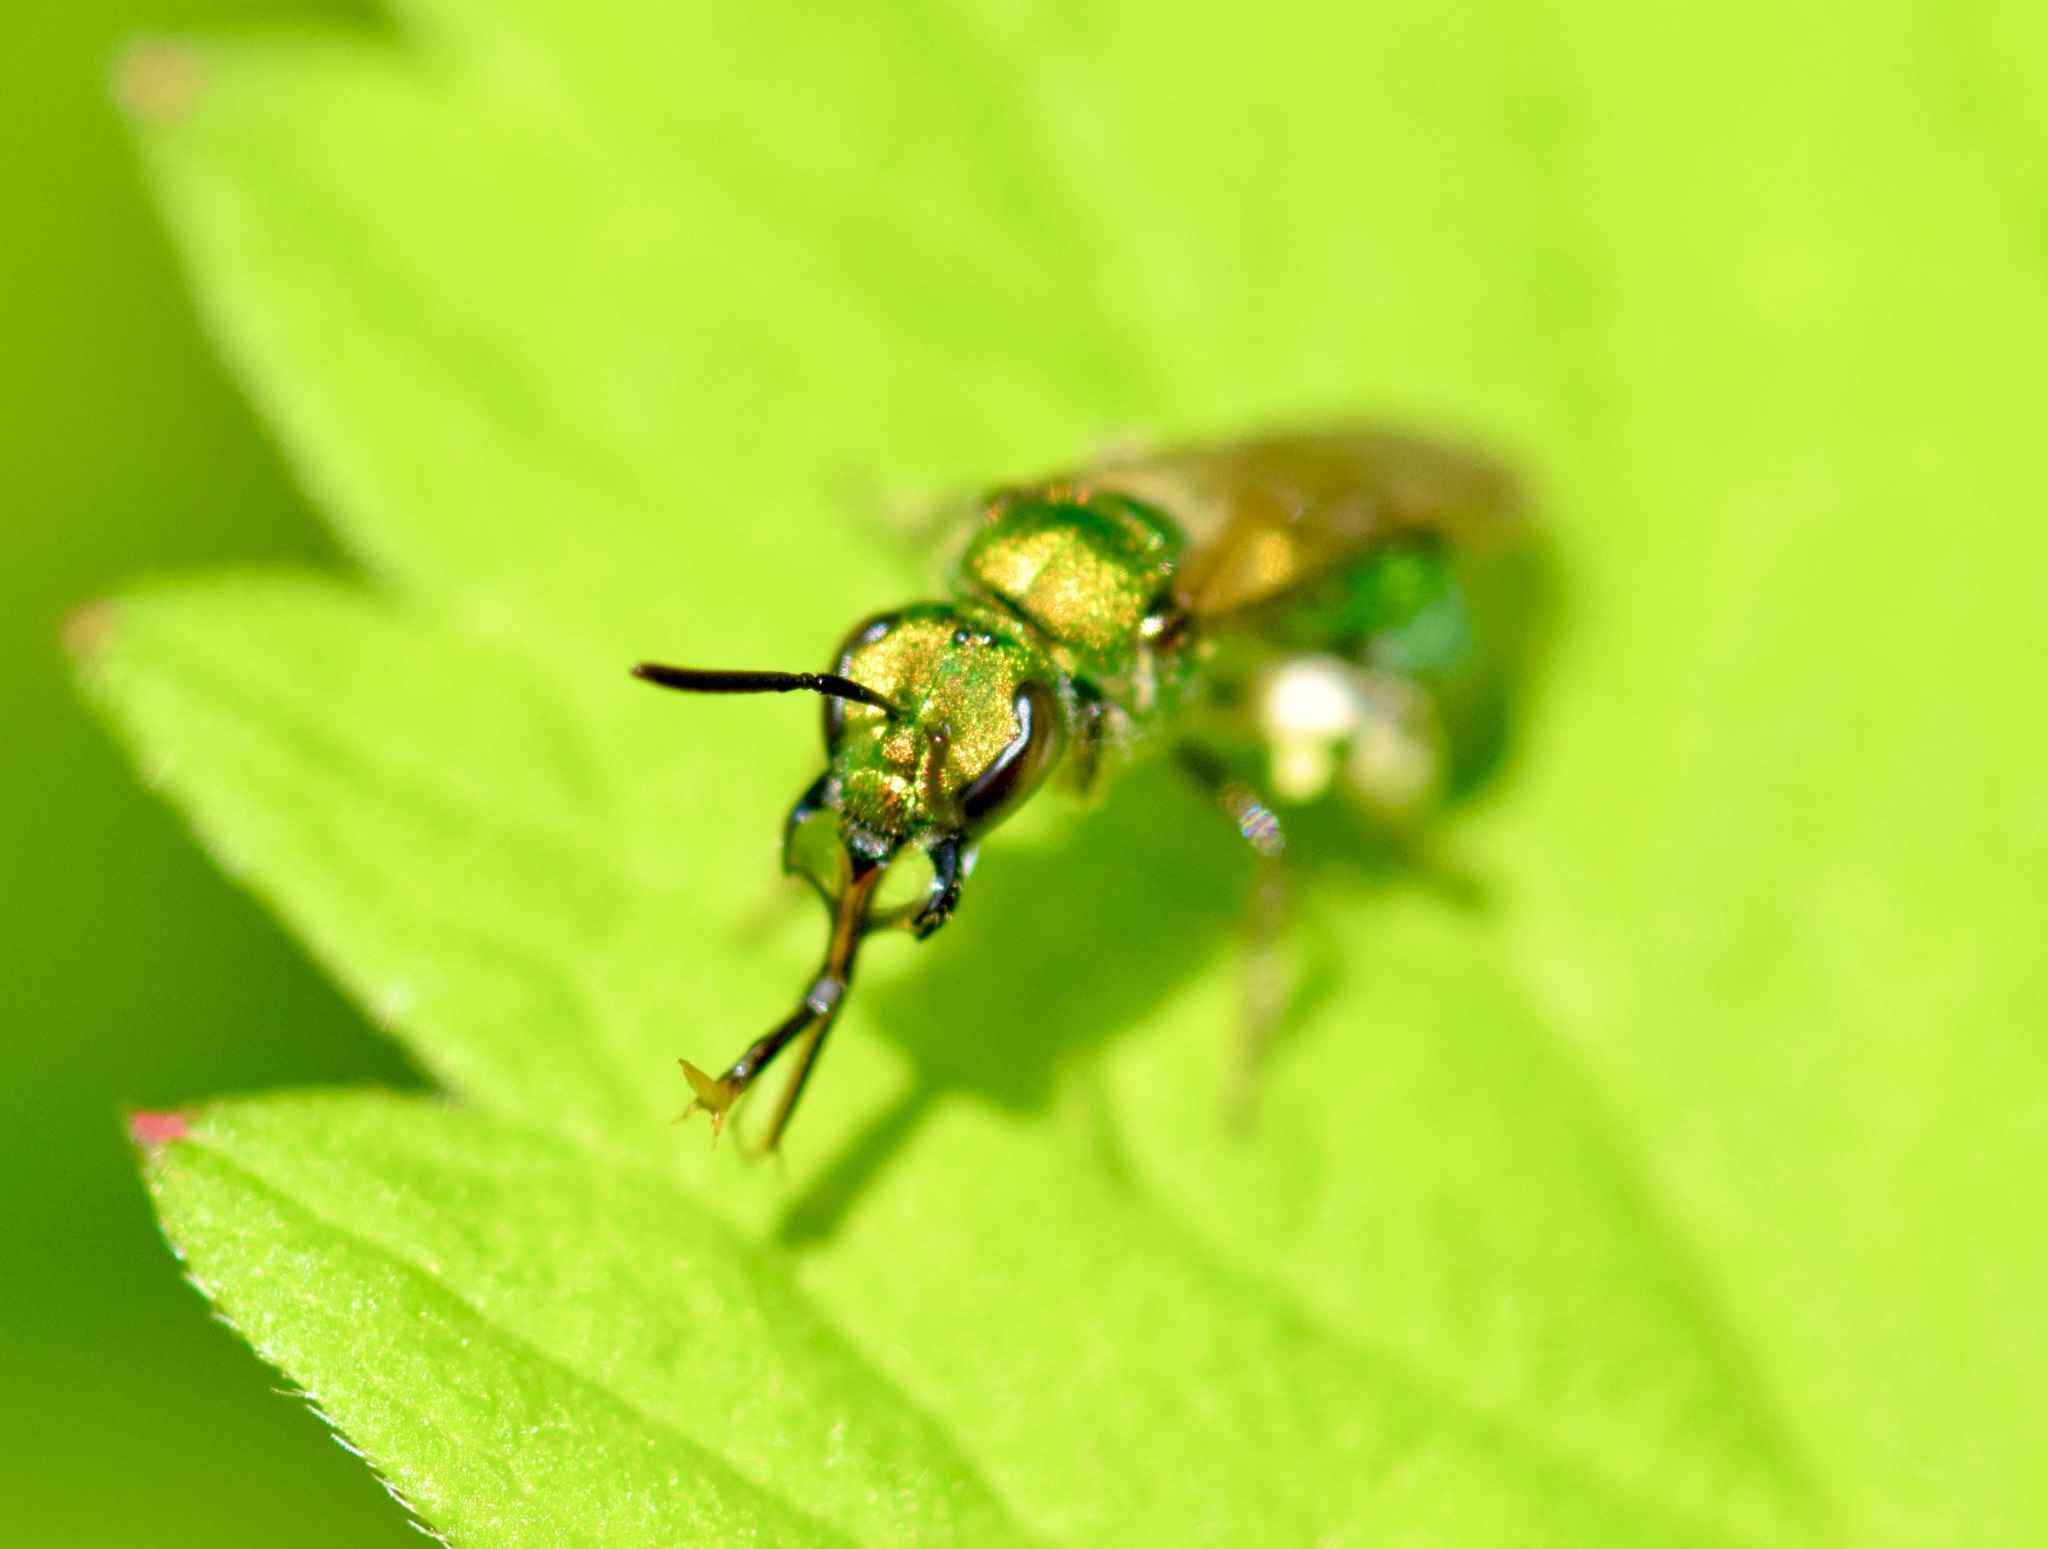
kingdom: Animalia
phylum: Arthropoda
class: Insecta
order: Hymenoptera
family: Halictidae
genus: Augochlora
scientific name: Augochlora pura
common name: Pure green sweat bee
